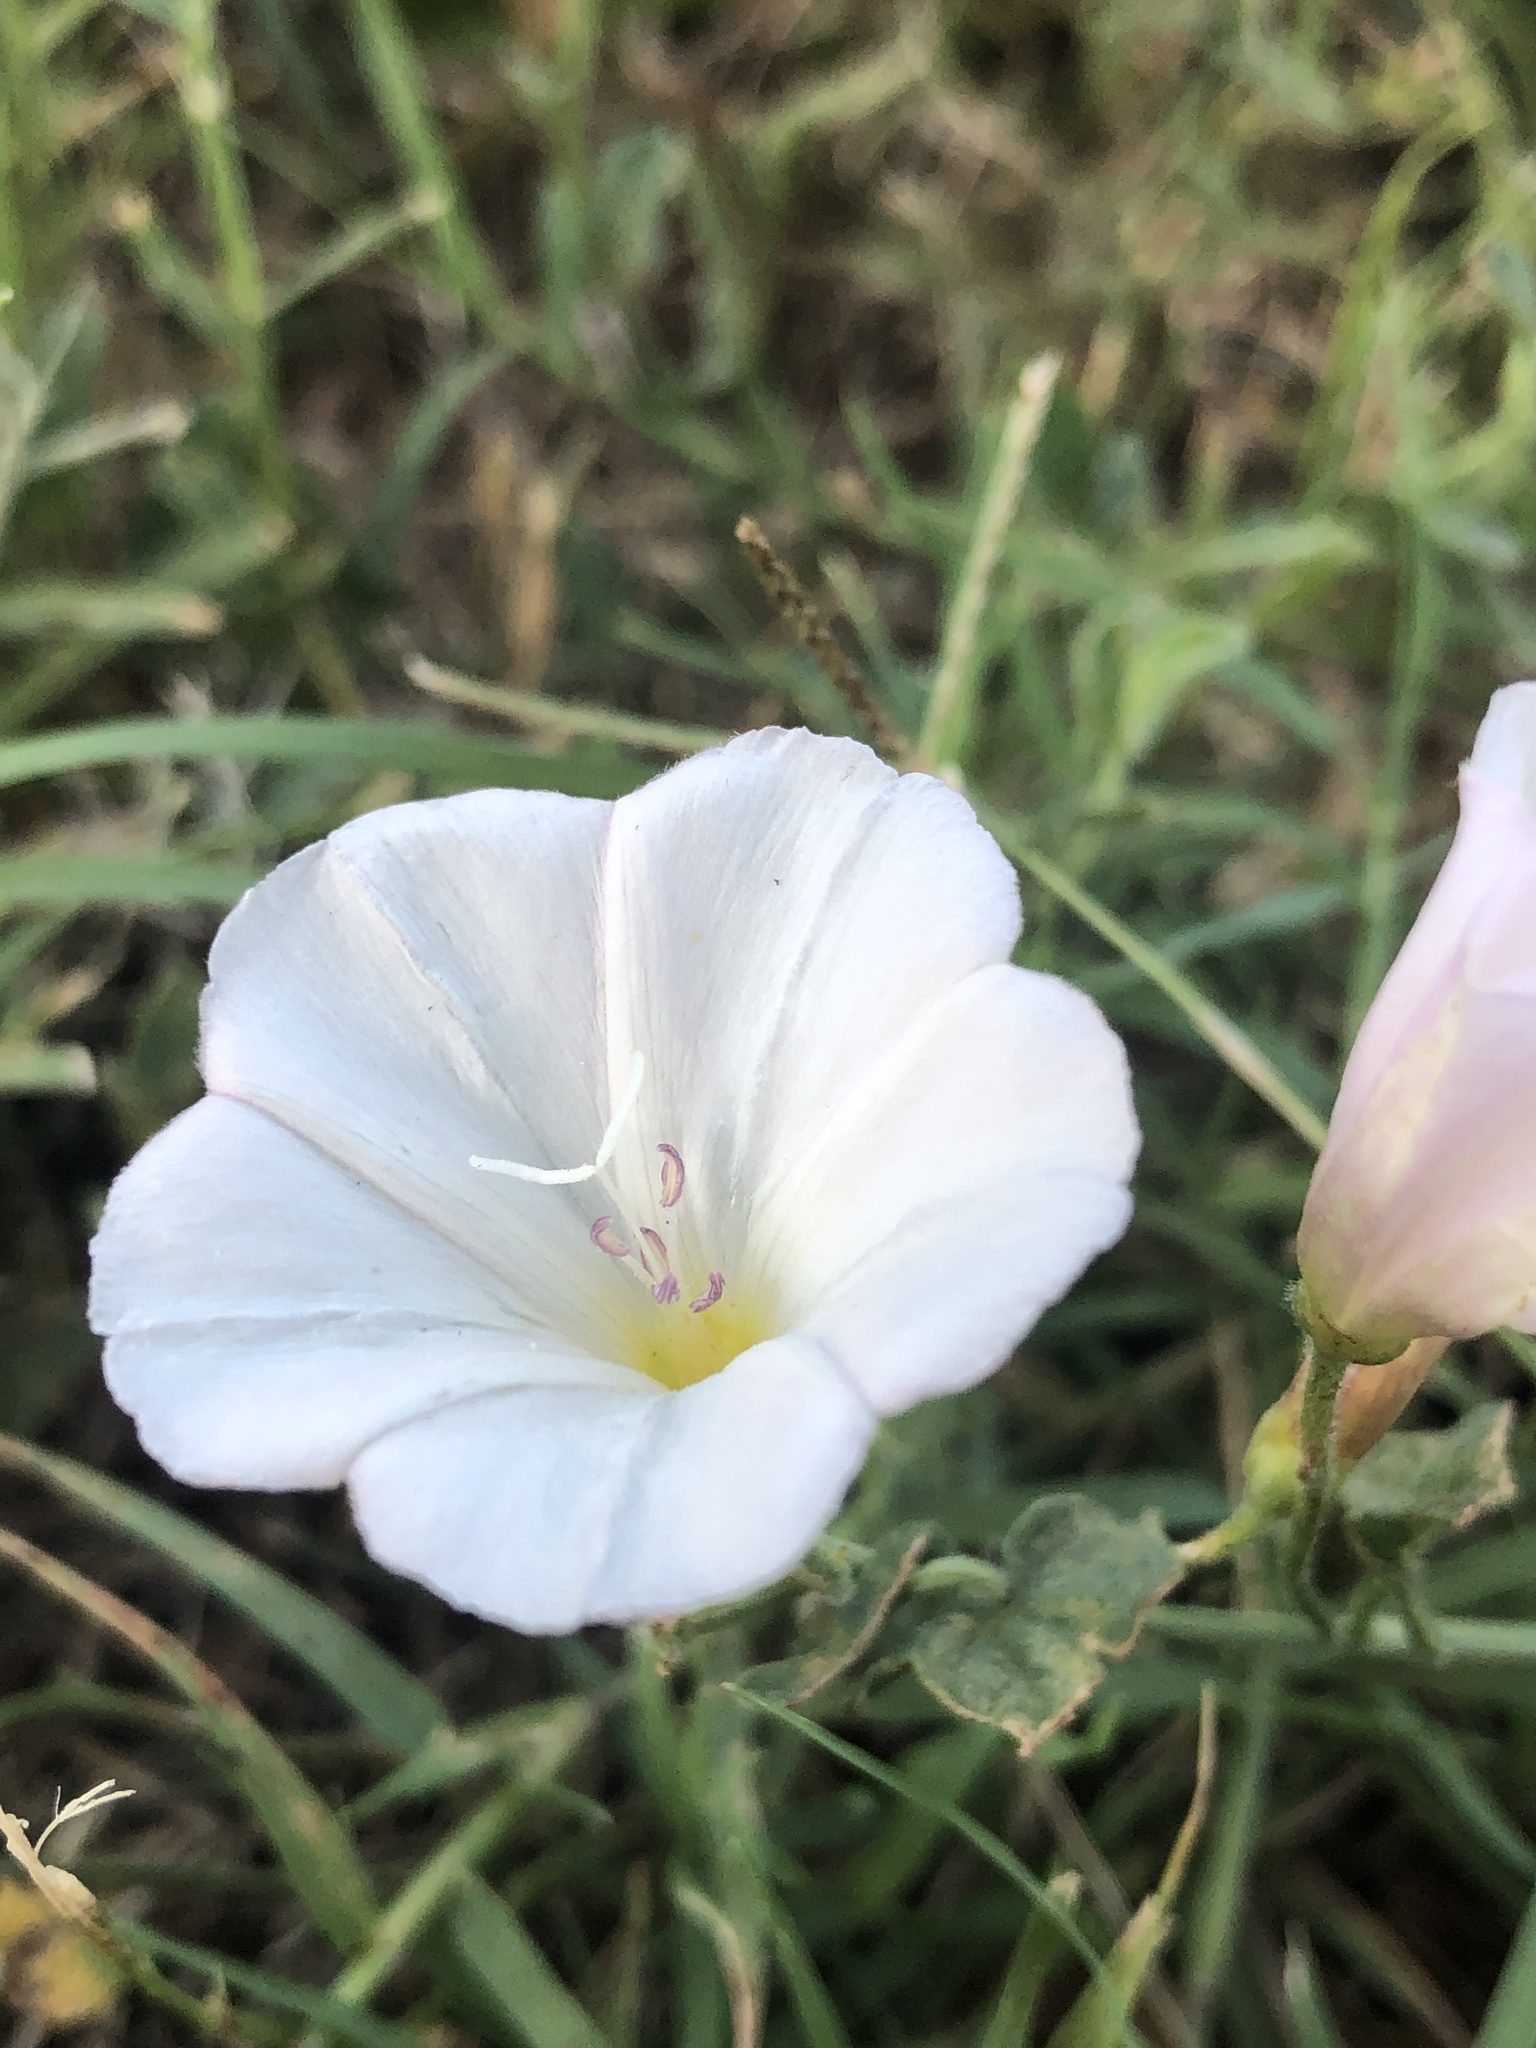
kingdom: Plantae
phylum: Tracheophyta
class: Magnoliopsida
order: Solanales
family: Convolvulaceae
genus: Convolvulus
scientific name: Convolvulus arvensis
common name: Field bindweed
